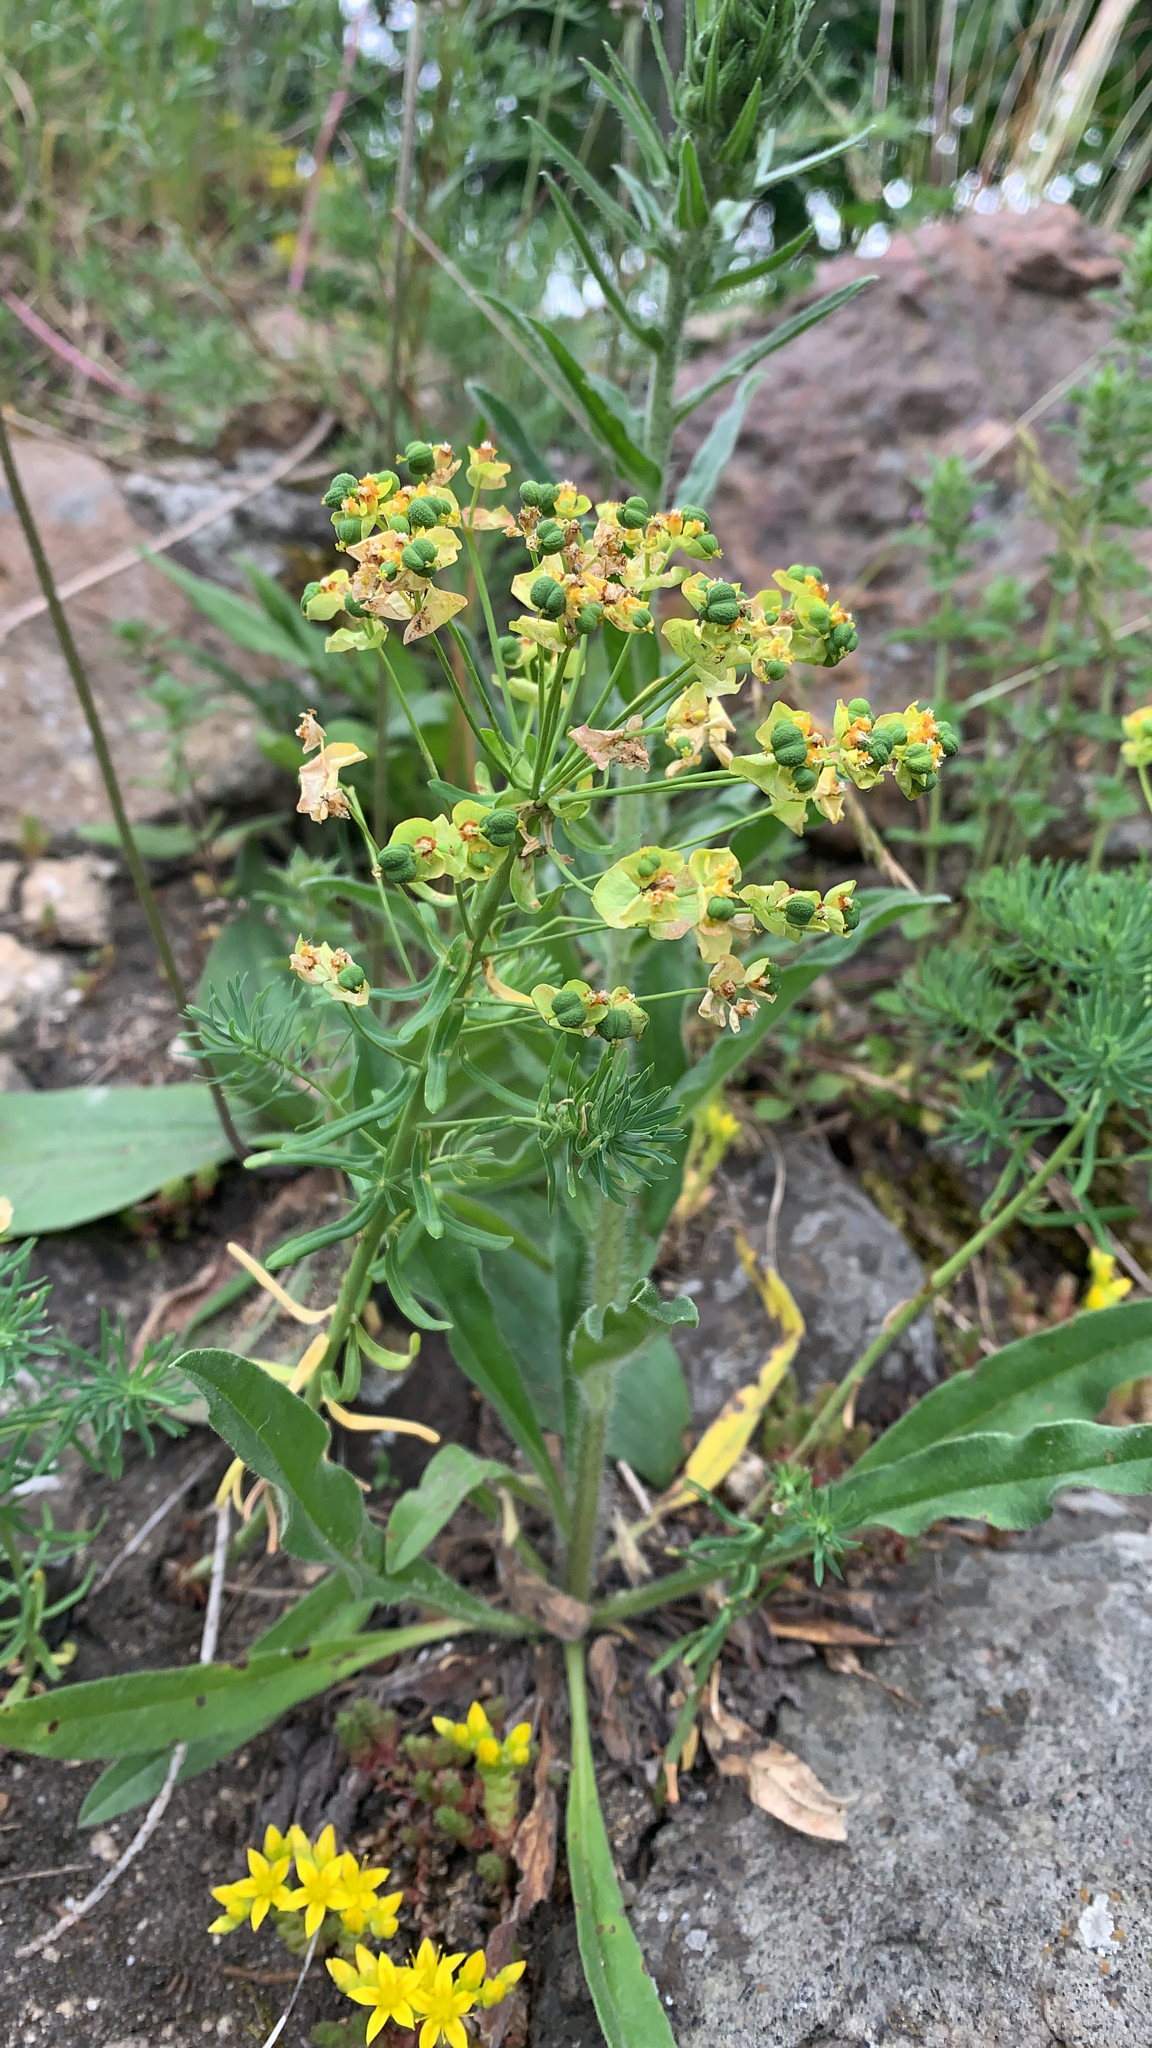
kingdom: Plantae
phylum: Tracheophyta
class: Magnoliopsida
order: Malpighiales
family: Euphorbiaceae
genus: Euphorbia
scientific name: Euphorbia cyparissias
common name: Cypress spurge
